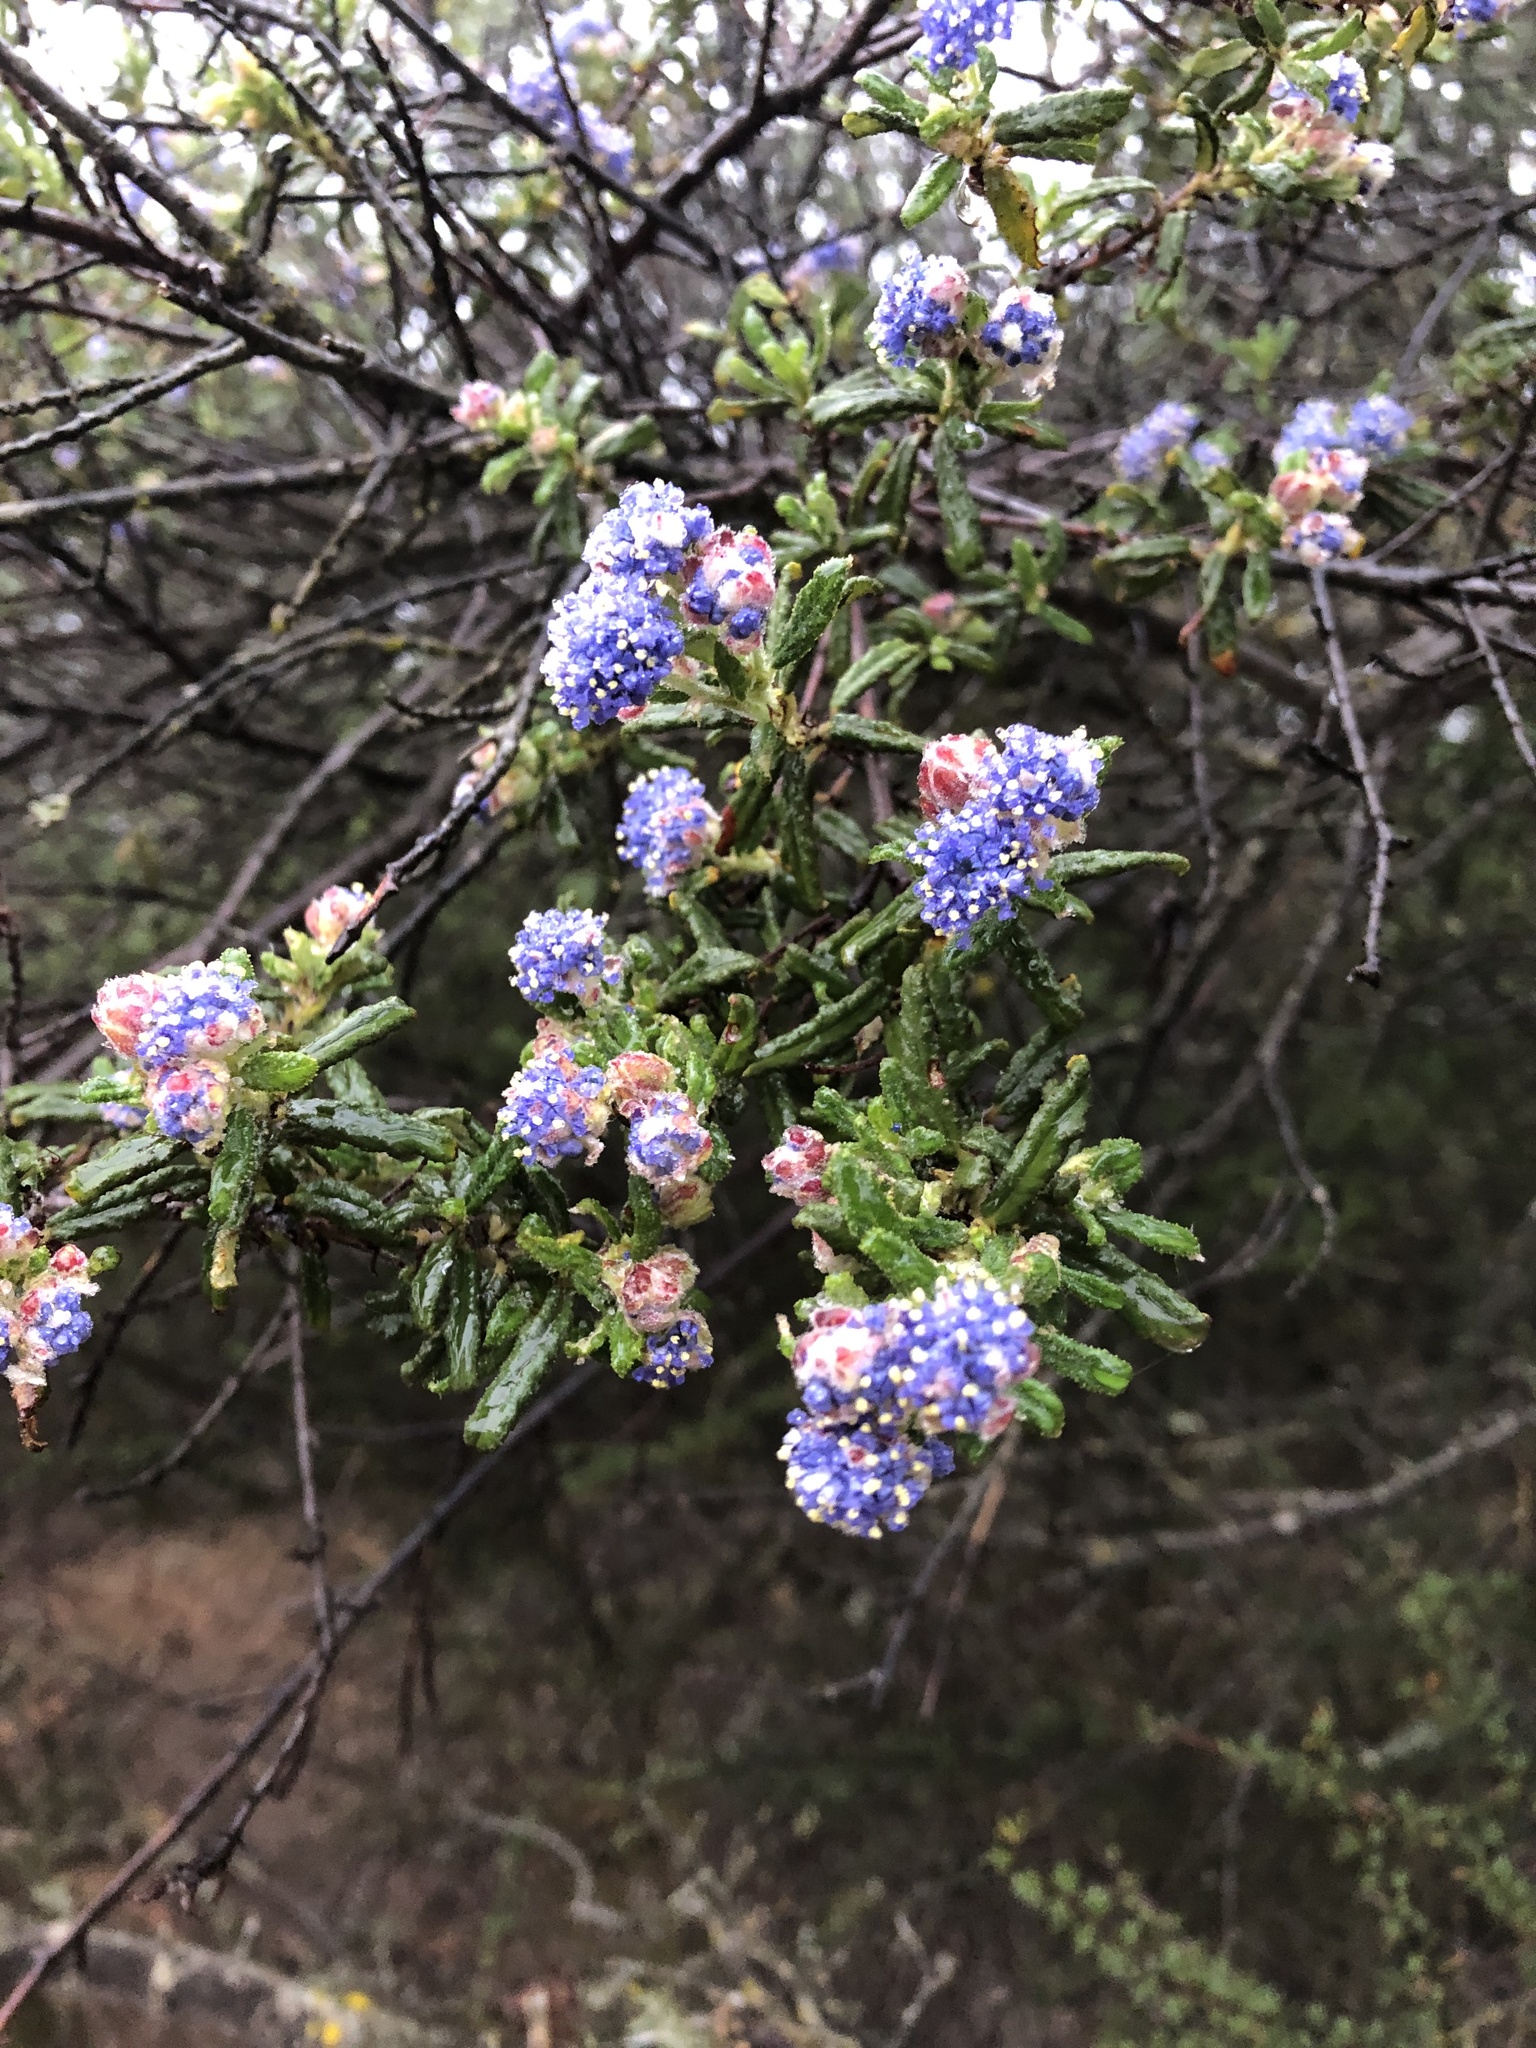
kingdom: Plantae
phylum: Tracheophyta
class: Magnoliopsida
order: Rosales
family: Rhamnaceae
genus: Ceanothus
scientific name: Ceanothus papillosus
